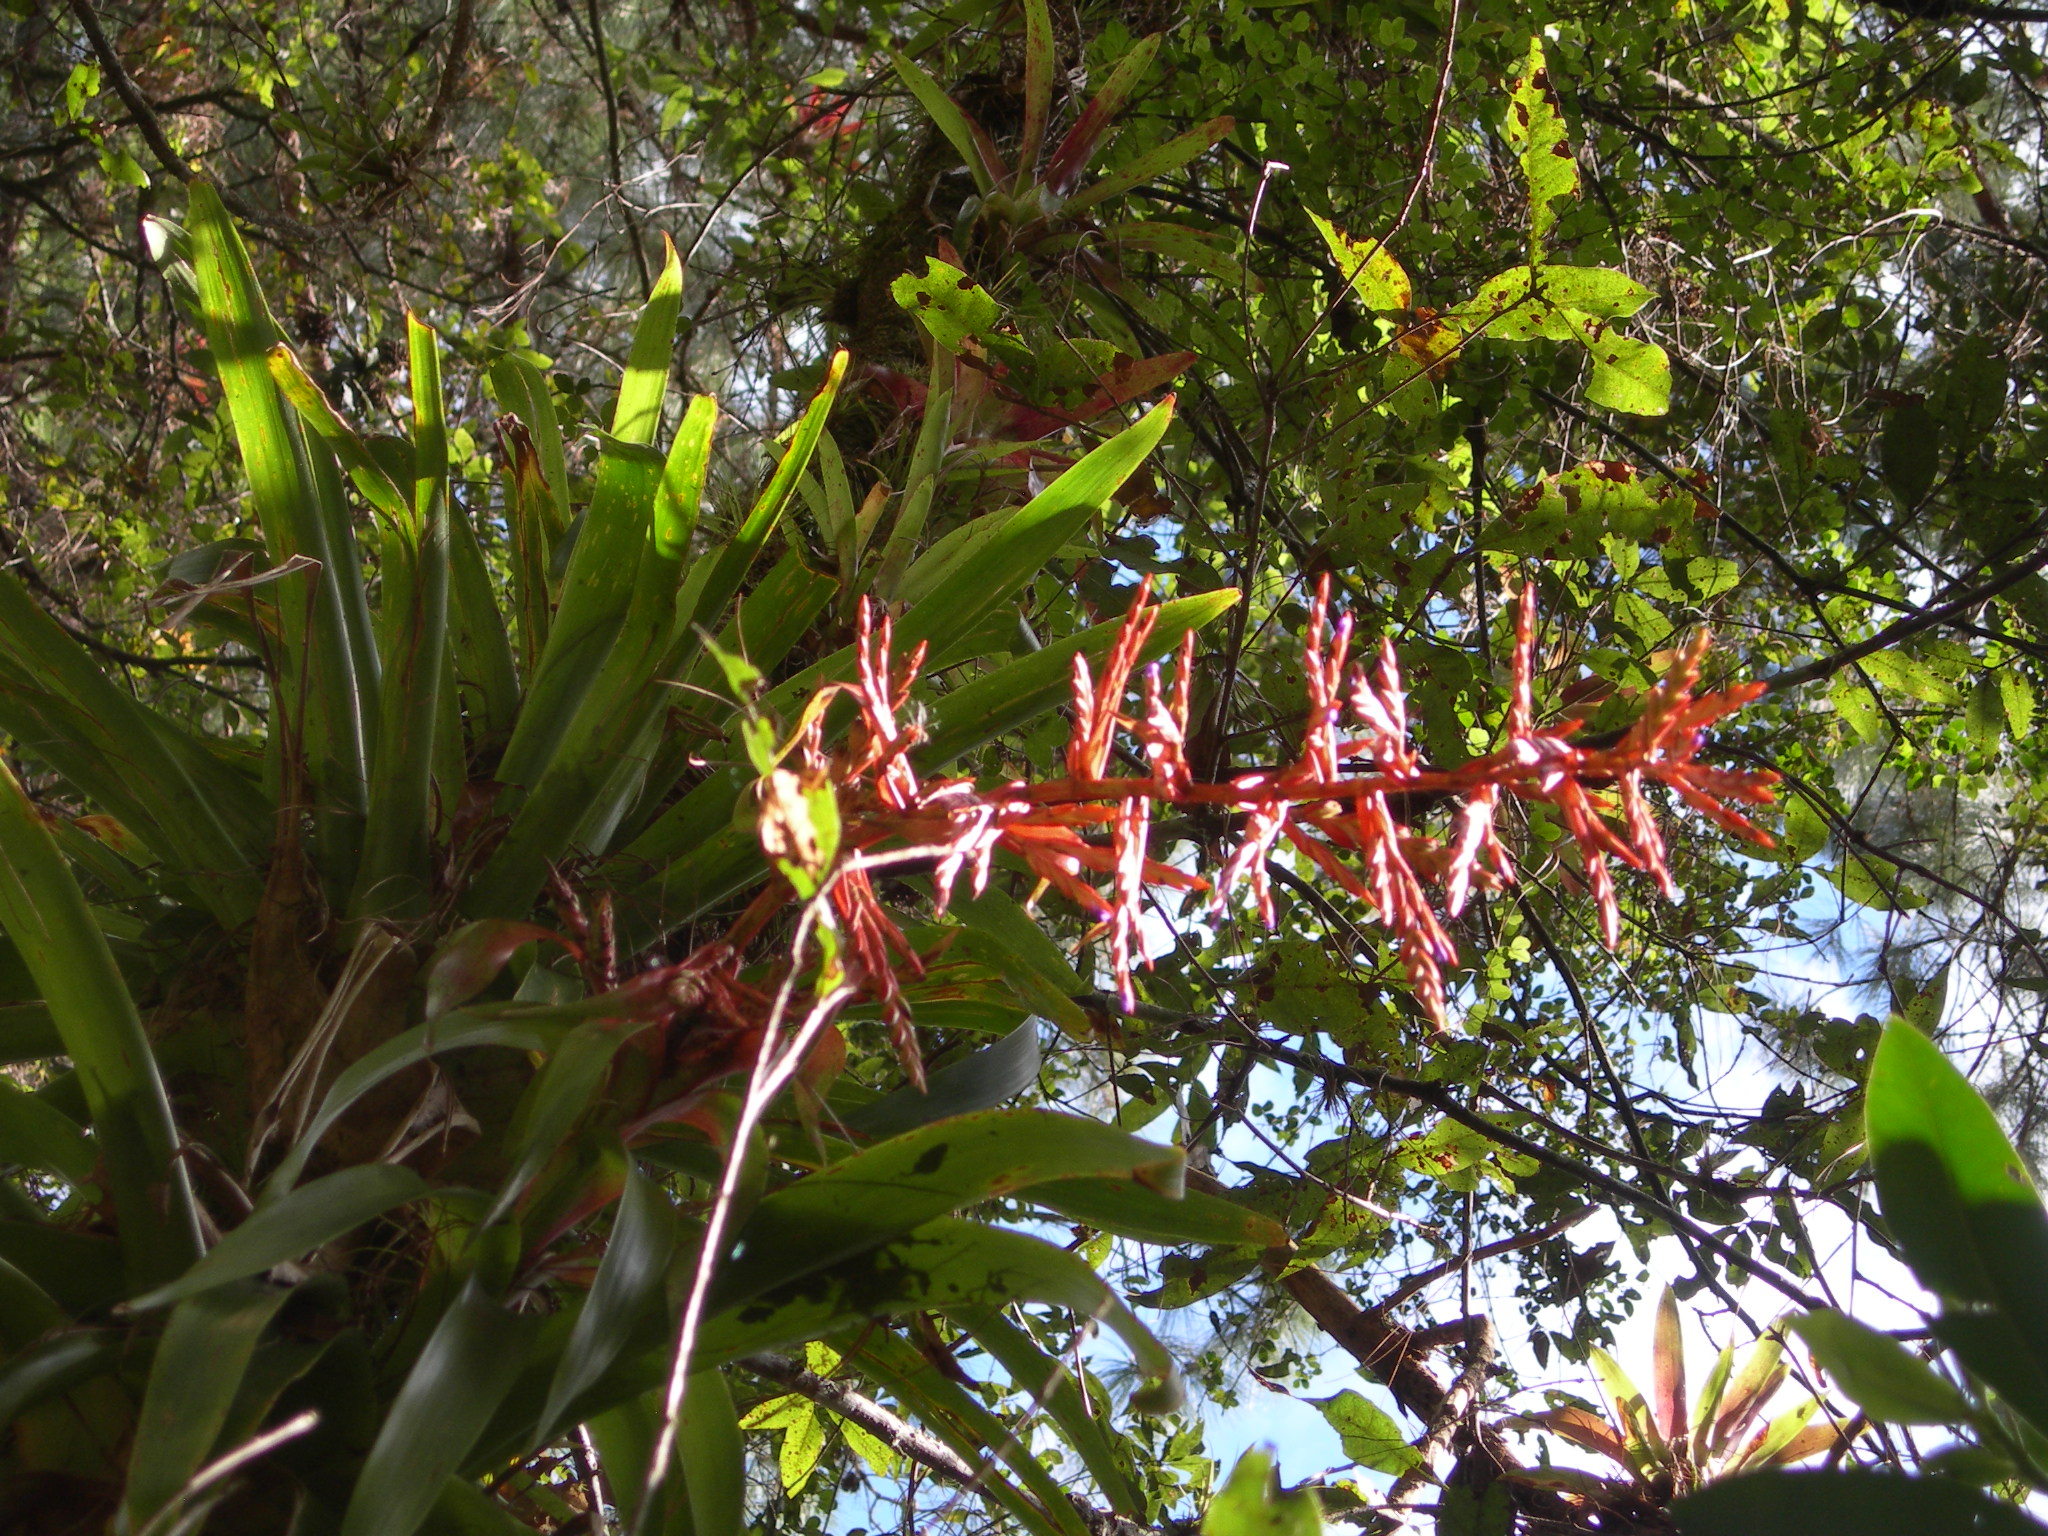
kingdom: Plantae
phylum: Tracheophyta
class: Liliopsida
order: Poales
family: Bromeliaceae
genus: Tillandsia
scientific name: Tillandsia guatemalensis
